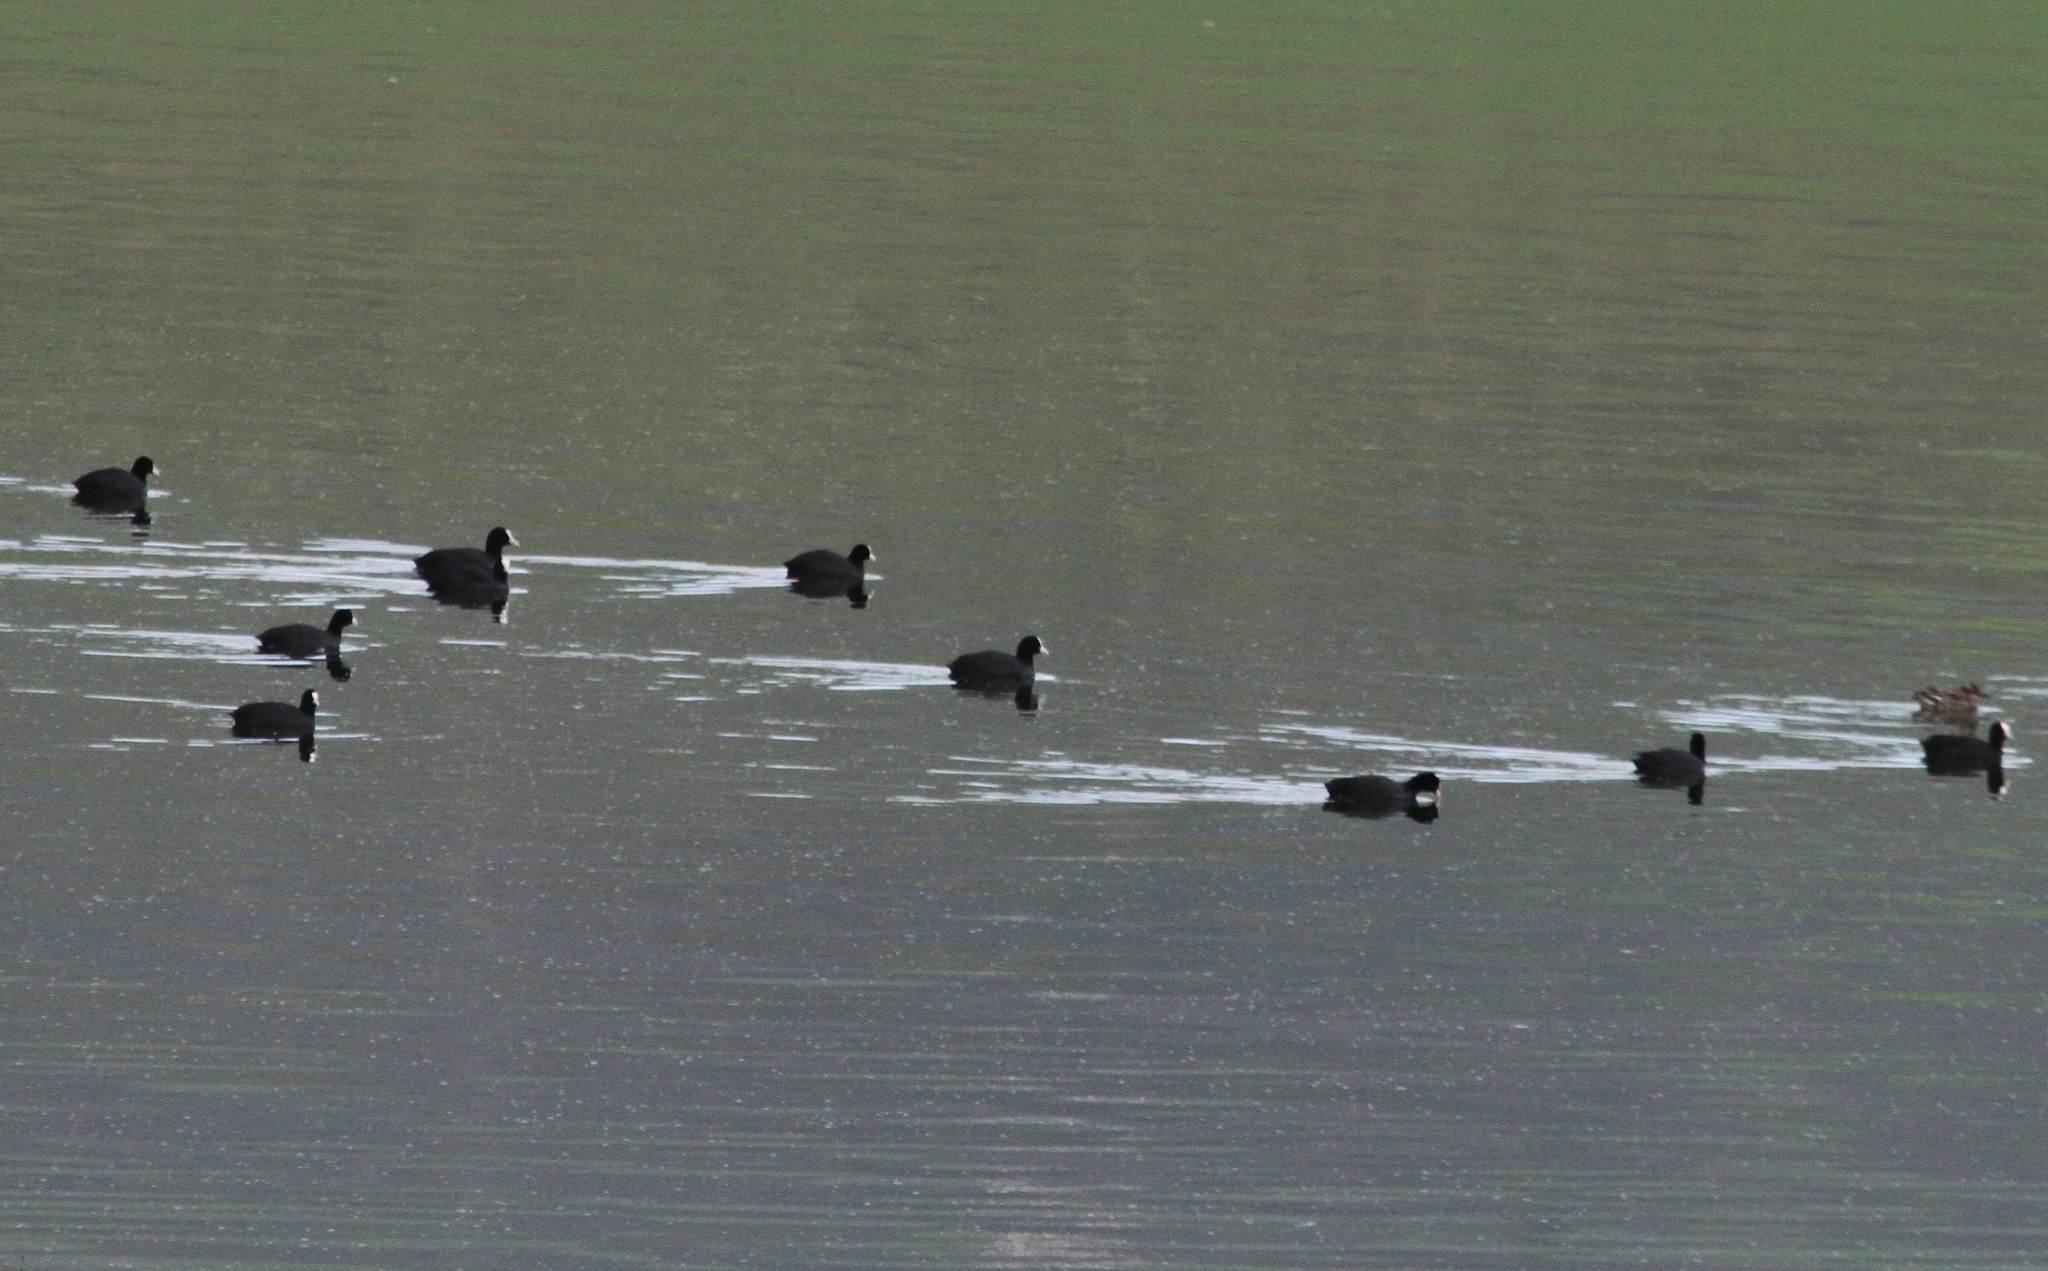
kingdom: Animalia
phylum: Chordata
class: Aves
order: Gruiformes
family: Rallidae
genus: Fulica
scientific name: Fulica atra
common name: Eurasian coot
